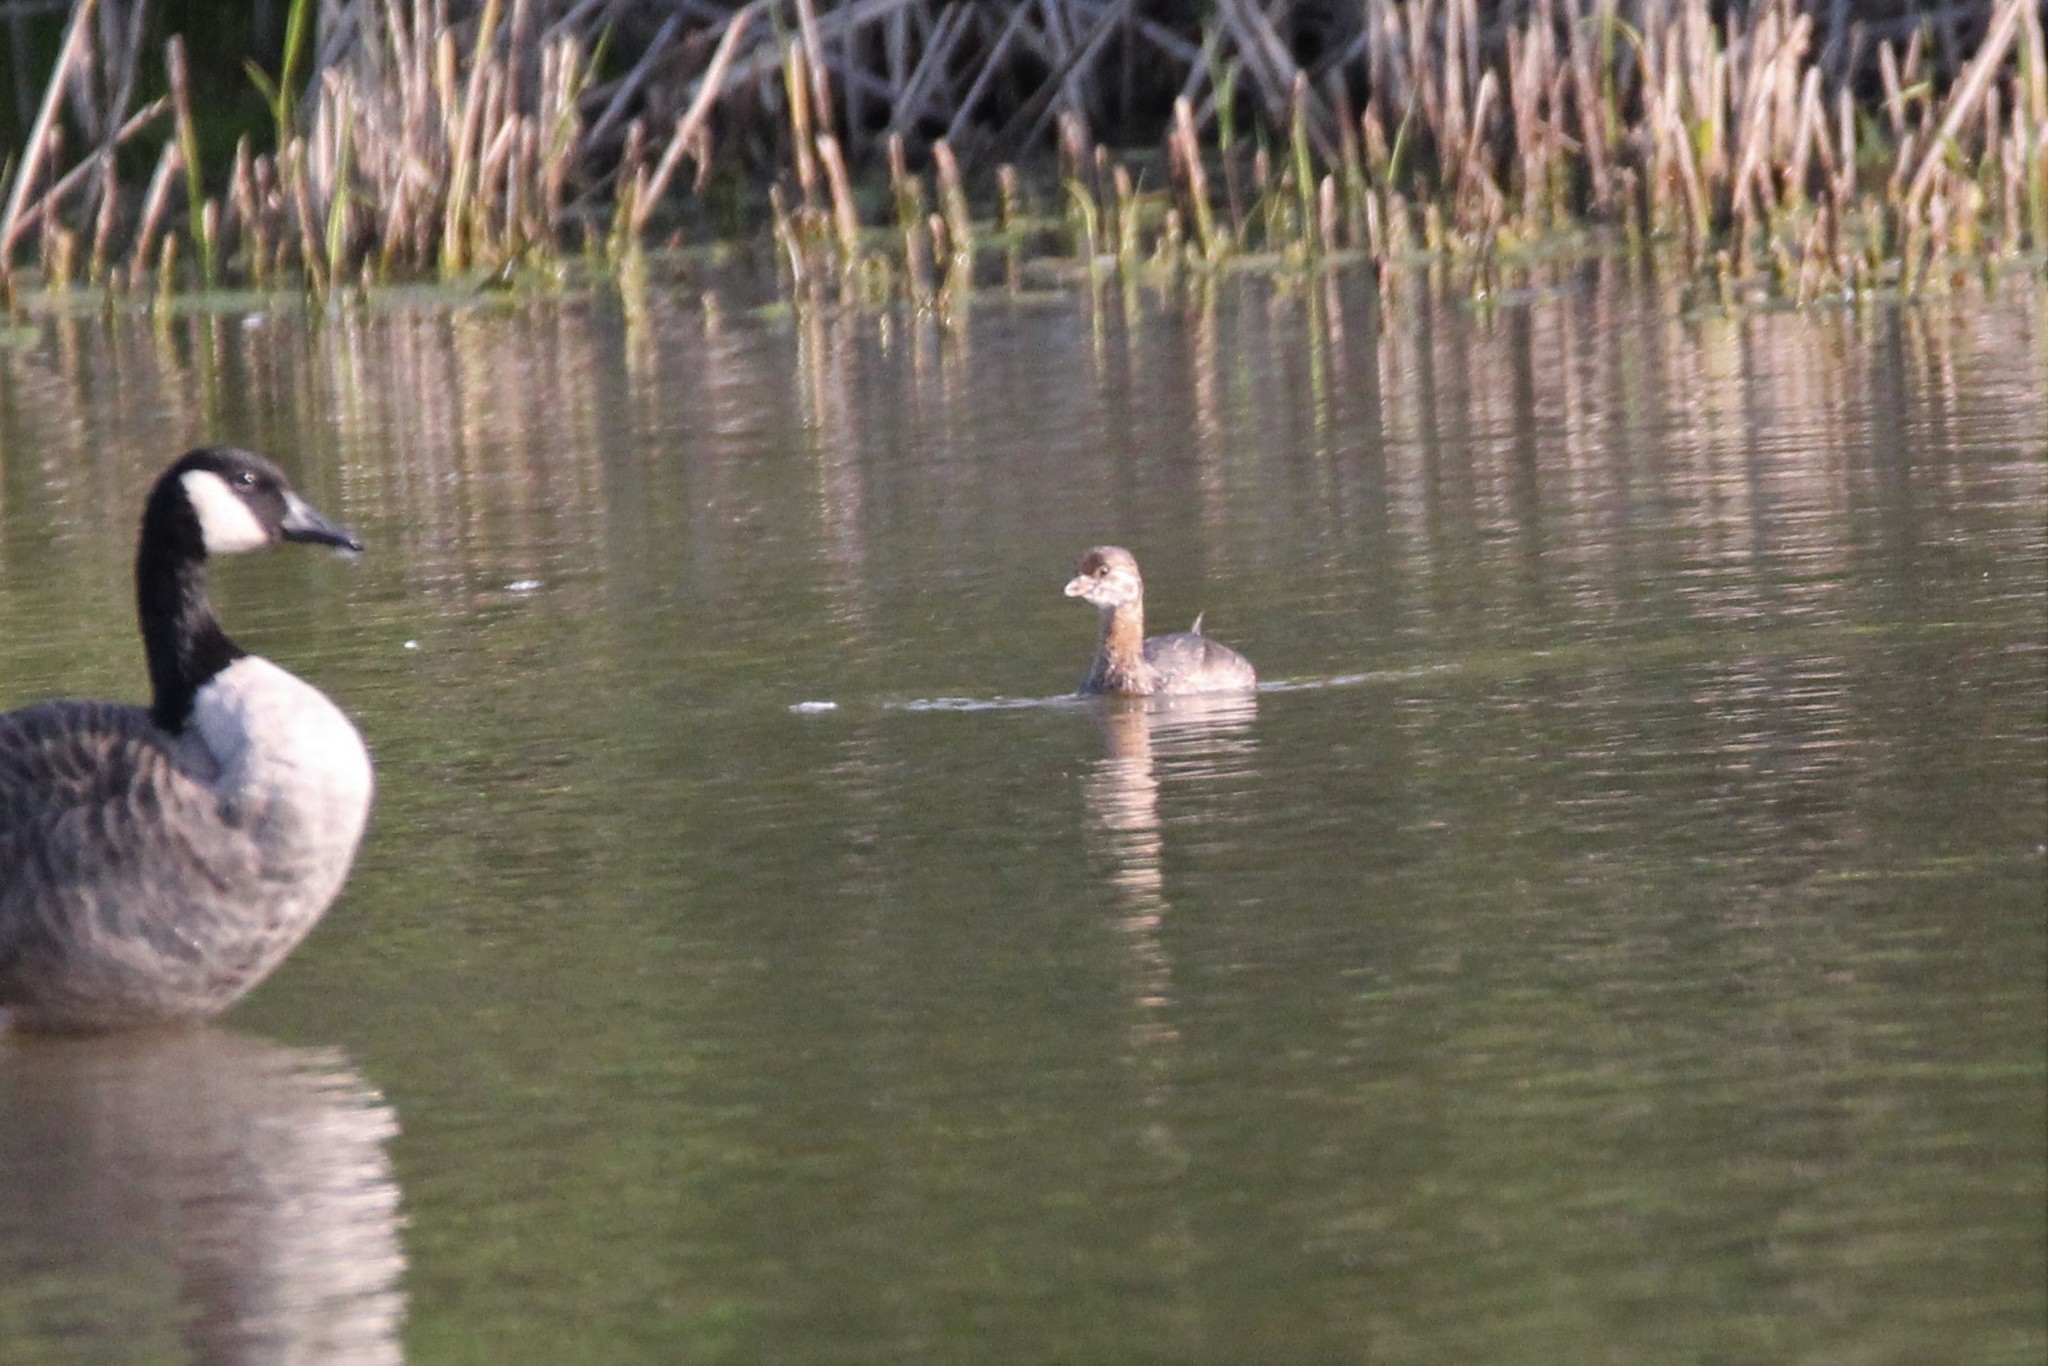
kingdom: Animalia
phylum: Chordata
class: Aves
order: Podicipediformes
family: Podicipedidae
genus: Podilymbus
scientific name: Podilymbus podiceps
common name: Pied-billed grebe
